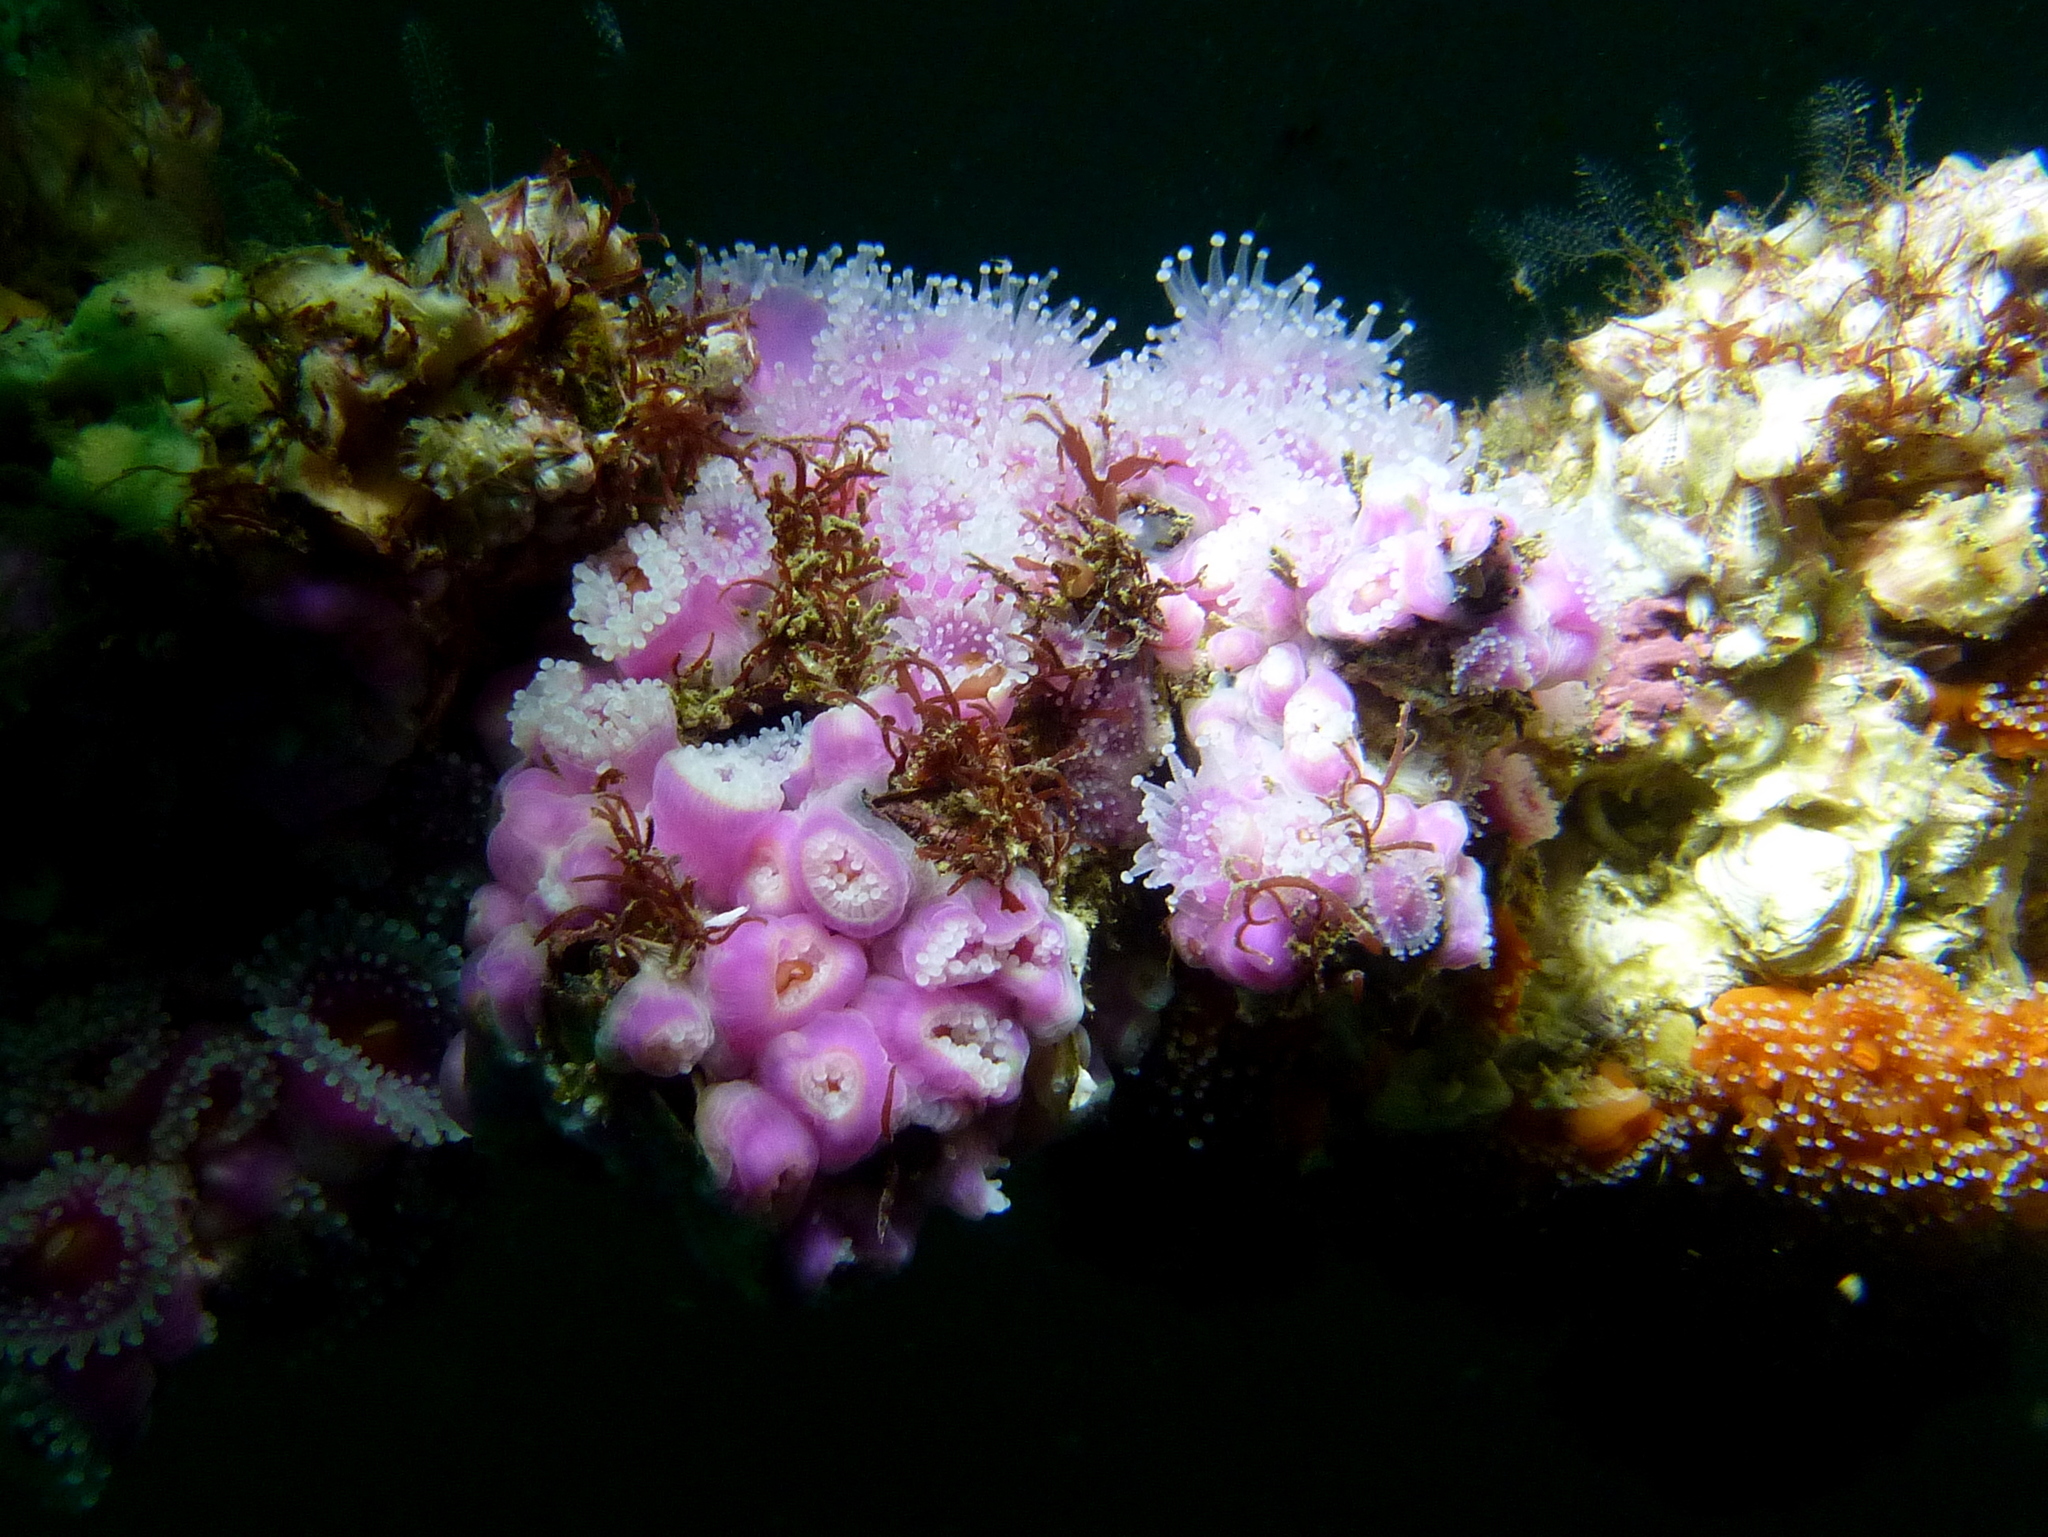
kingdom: Animalia
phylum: Cnidaria
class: Anthozoa
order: Corallimorpharia
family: Corallimorphidae
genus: Corynactis
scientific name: Corynactis australis
